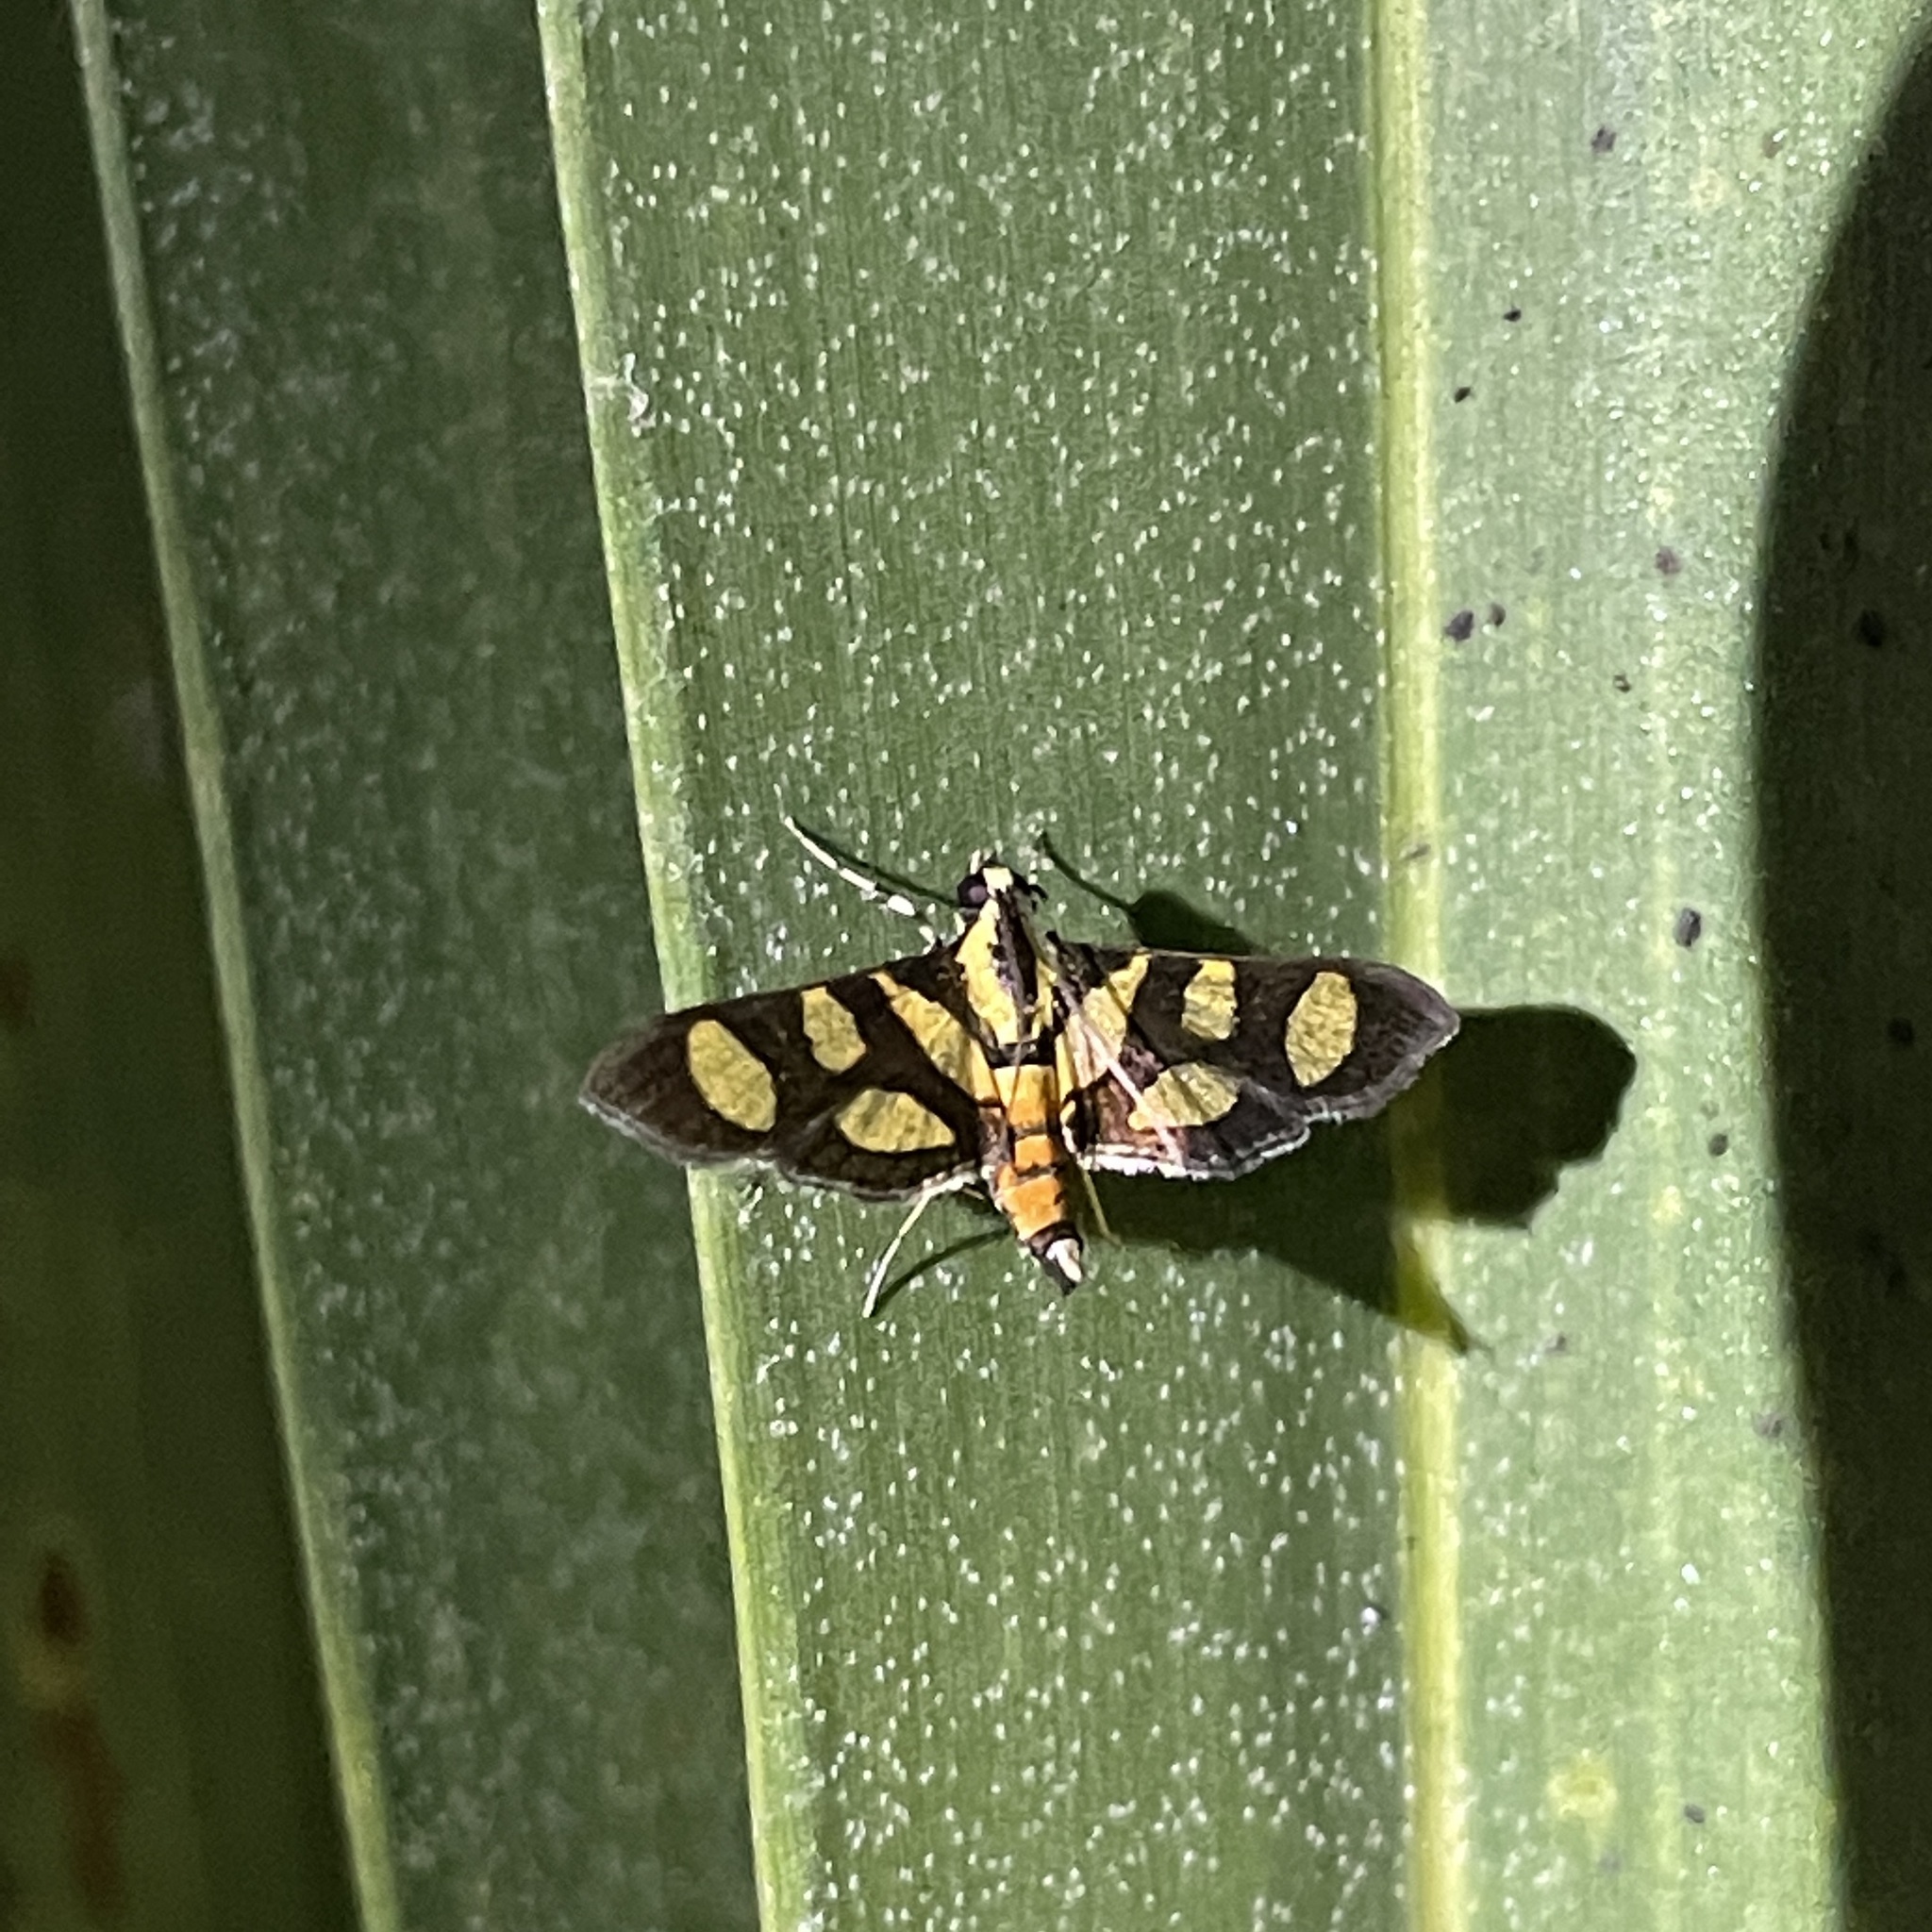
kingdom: Animalia
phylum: Arthropoda
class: Insecta
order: Lepidoptera
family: Crambidae
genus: Syngamia
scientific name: Syngamia florella
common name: Orange-spotted flower moth
